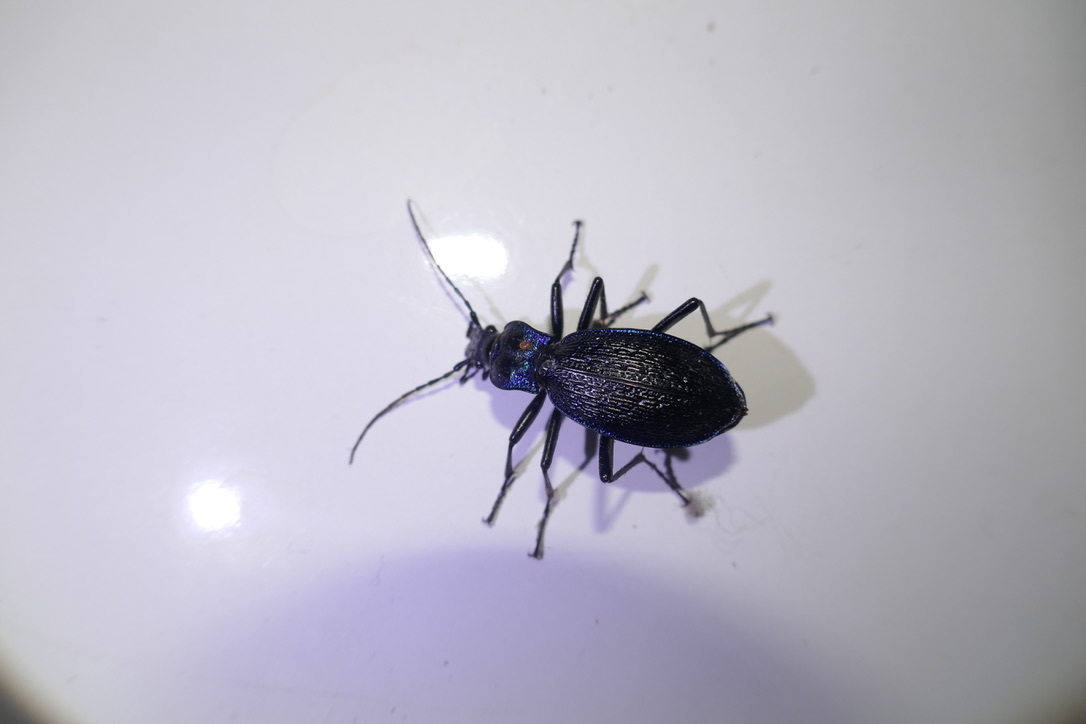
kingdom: Animalia
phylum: Arthropoda
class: Insecta
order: Coleoptera
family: Carabidae
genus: Carabus
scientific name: Carabus intricatus
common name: Blue ground beetle
